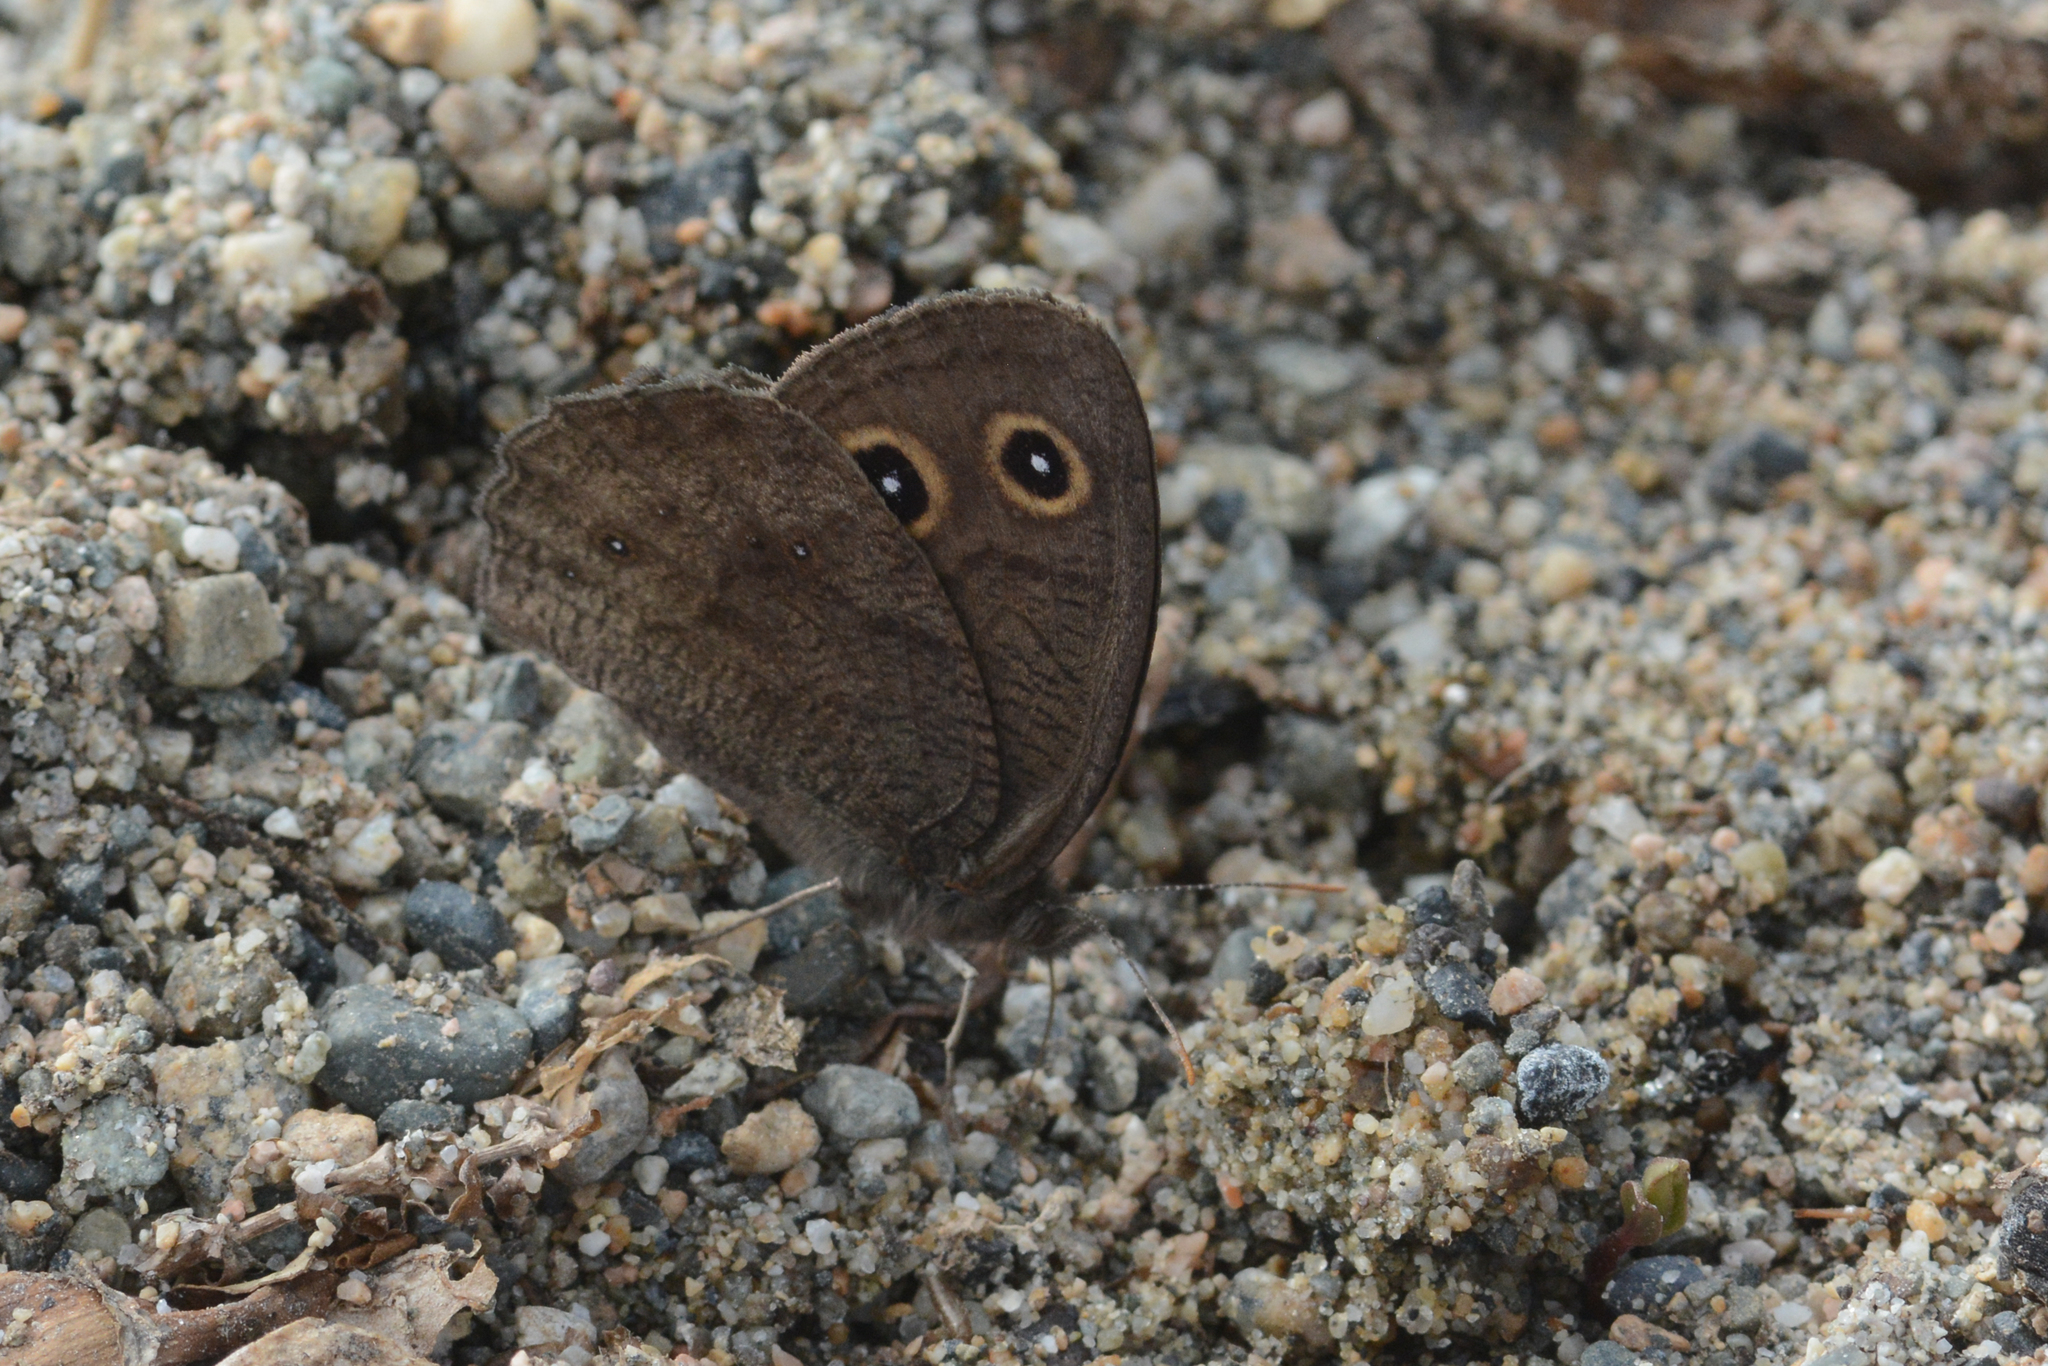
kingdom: Animalia
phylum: Arthropoda
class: Insecta
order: Lepidoptera
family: Nymphalidae
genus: Cercyonis
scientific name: Cercyonis pegala
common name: Common wood-nymph
